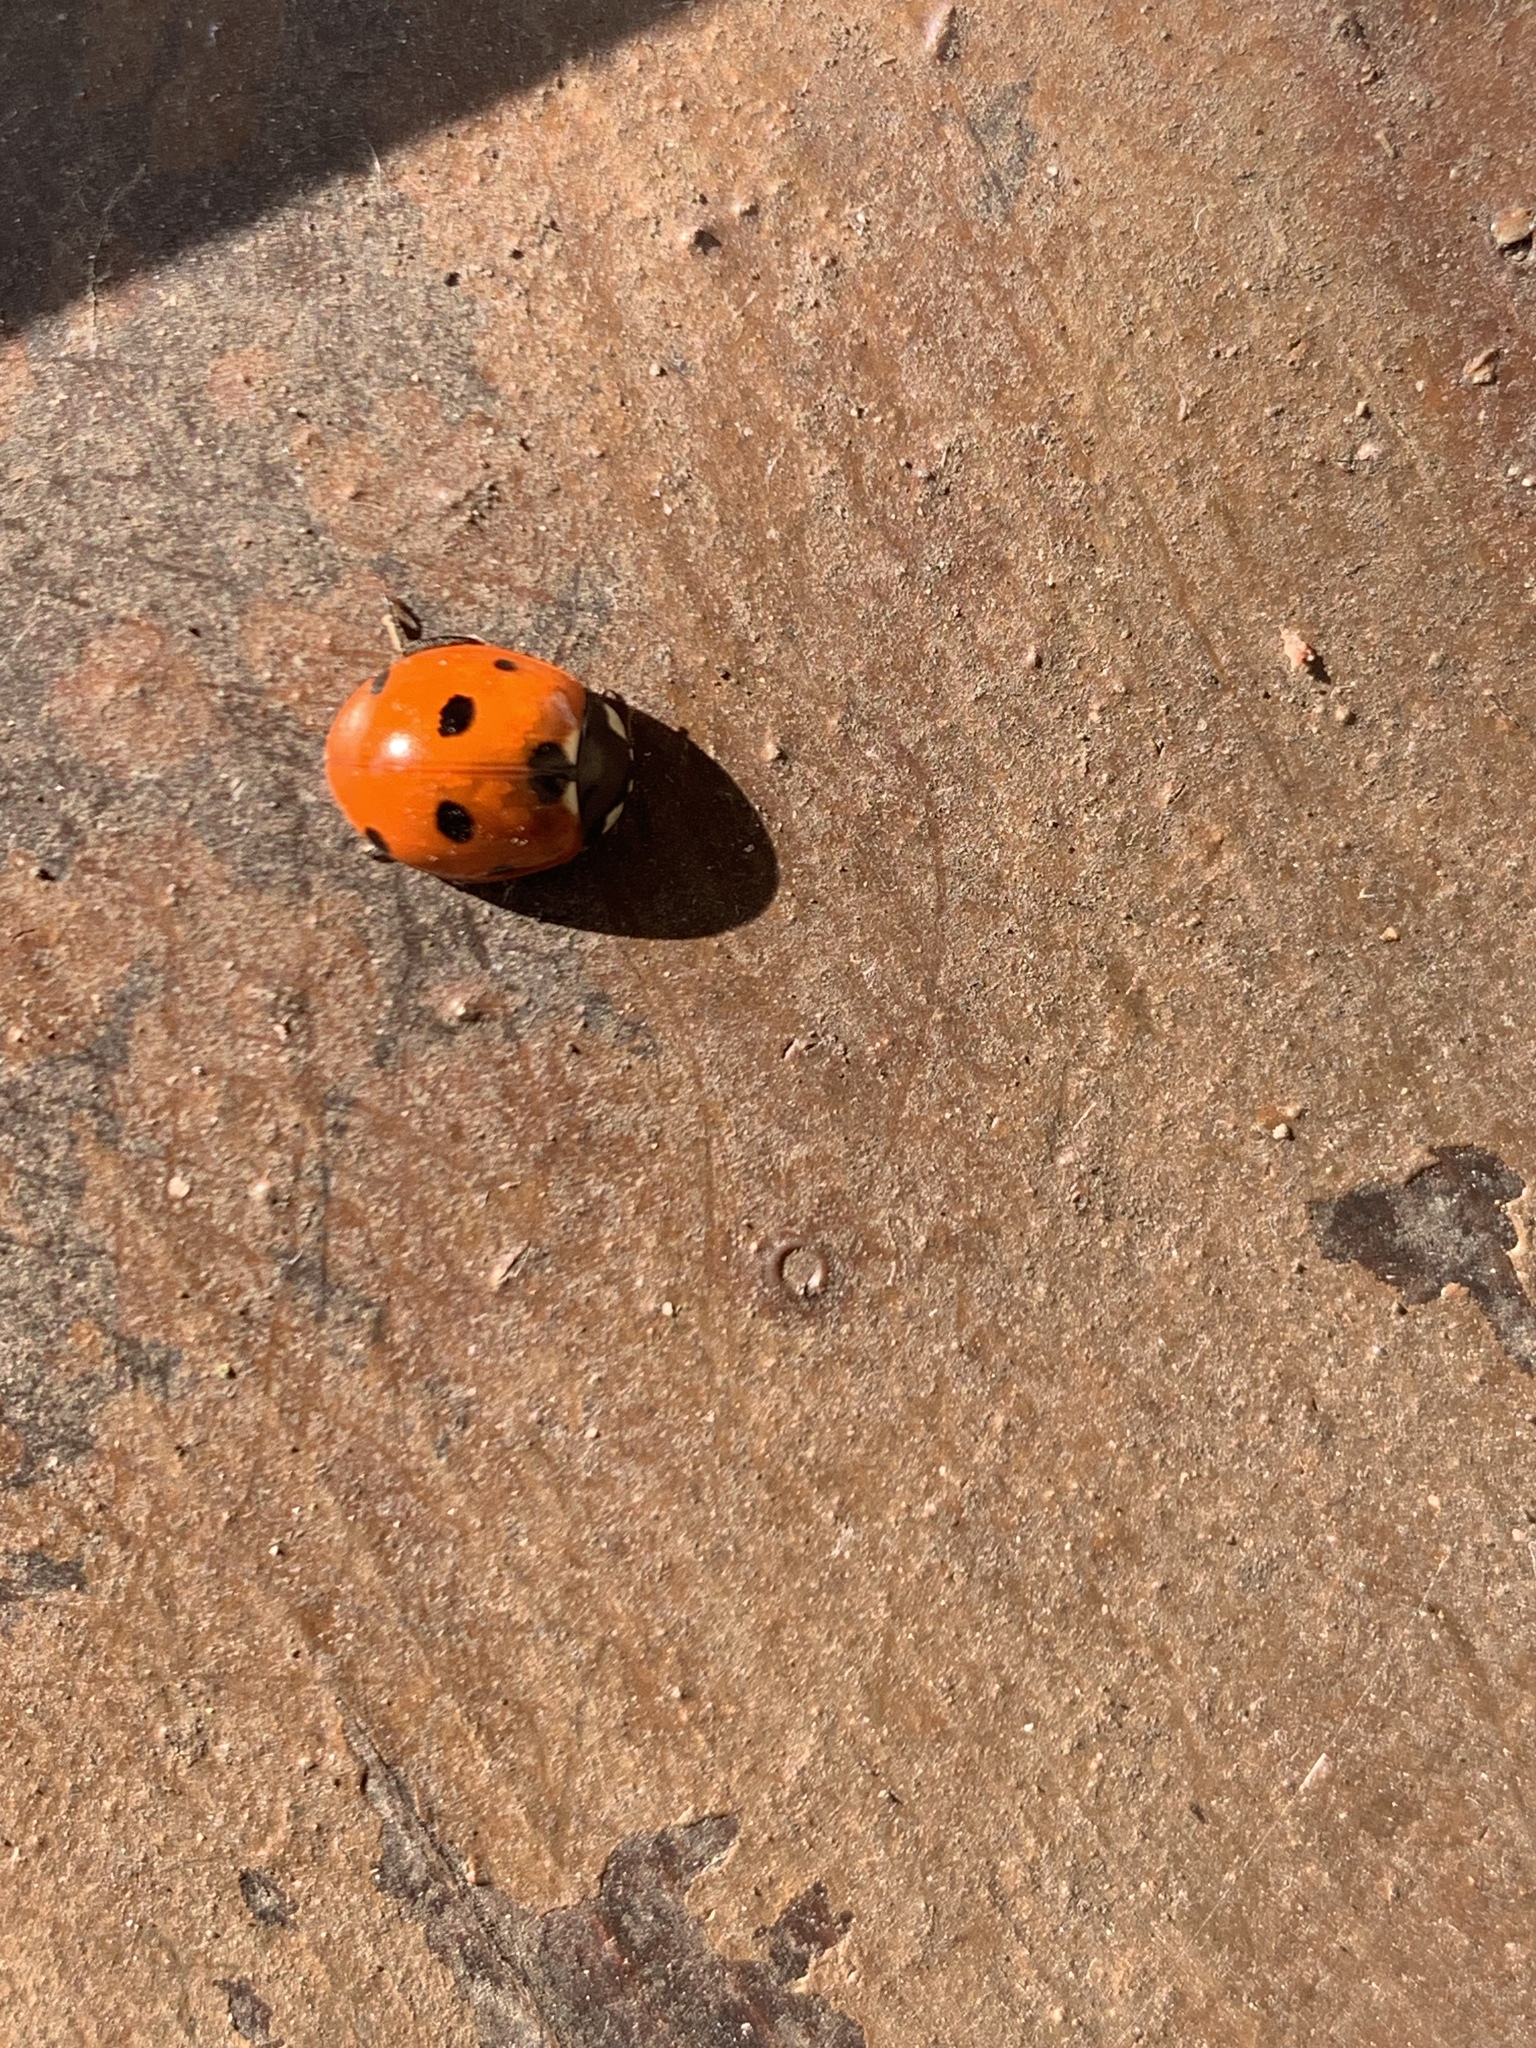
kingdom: Animalia
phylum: Arthropoda
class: Insecta
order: Coleoptera
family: Coccinellidae
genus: Coccinella
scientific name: Coccinella septempunctata
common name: Sevenspotted lady beetle
